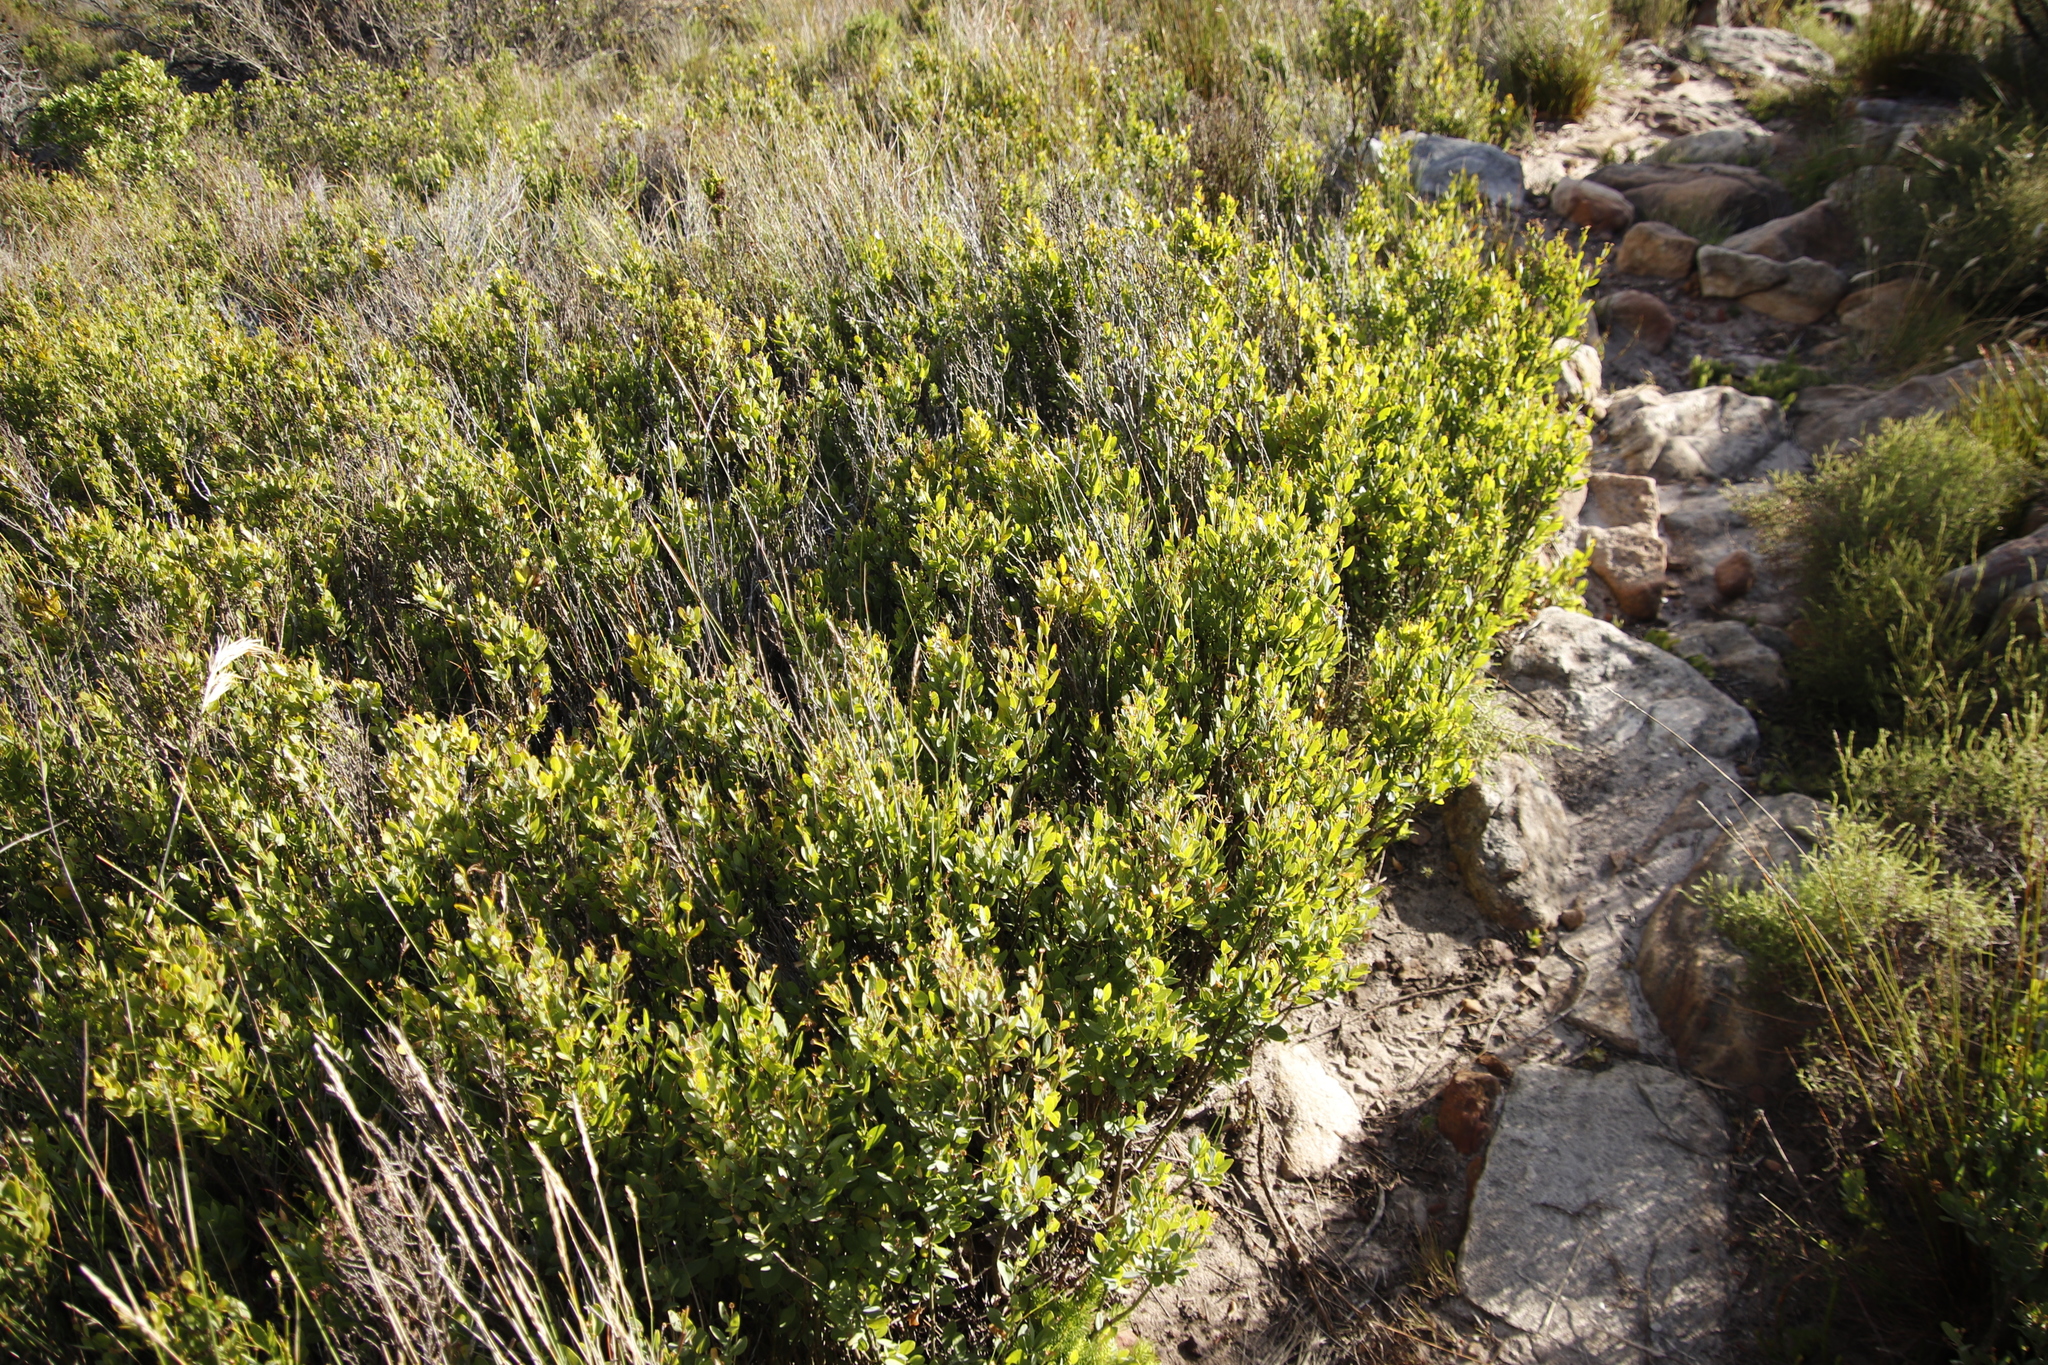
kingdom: Plantae
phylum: Tracheophyta
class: Magnoliopsida
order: Ericales
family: Ebenaceae
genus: Diospyros
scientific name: Diospyros glabra
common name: Fynbos star apple
